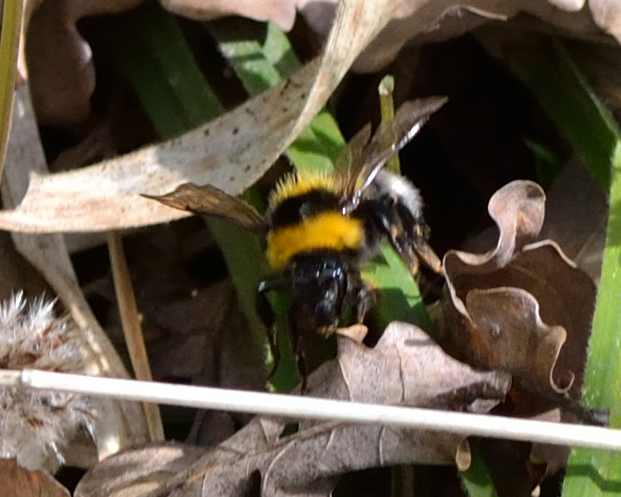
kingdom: Animalia
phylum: Arthropoda
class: Insecta
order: Hymenoptera
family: Apidae
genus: Bombus
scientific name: Bombus hortorum
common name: Garden bumblebee
